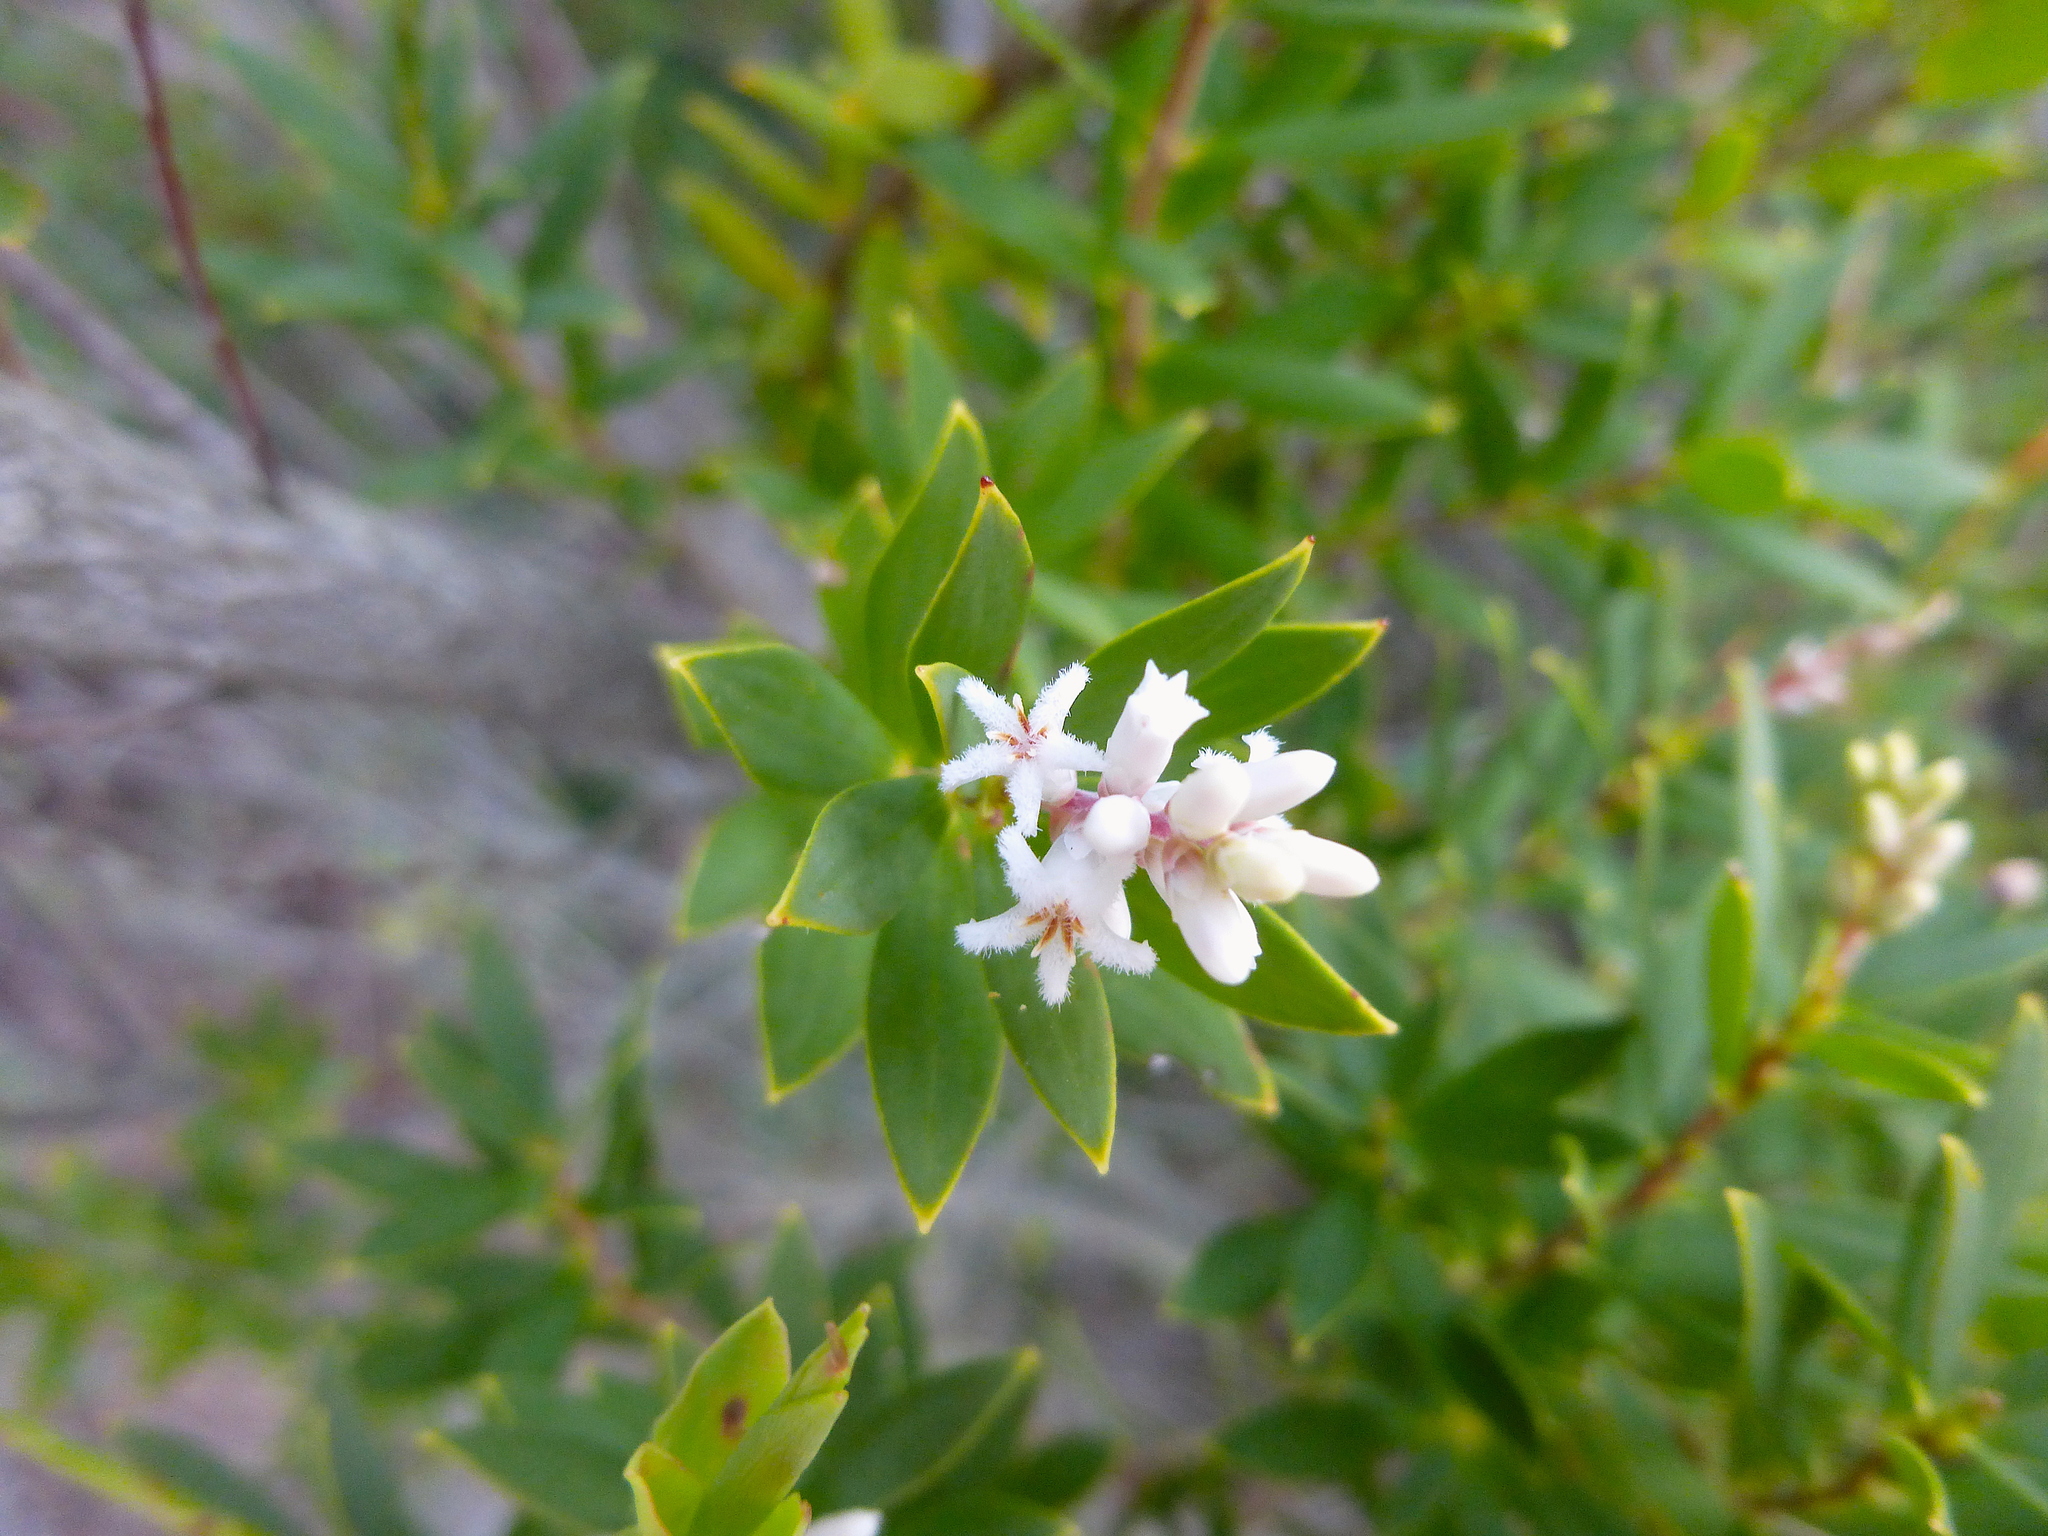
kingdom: Plantae
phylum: Tracheophyta
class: Magnoliopsida
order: Ericales
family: Ericaceae
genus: Leptecophylla
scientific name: Leptecophylla parvifolia
